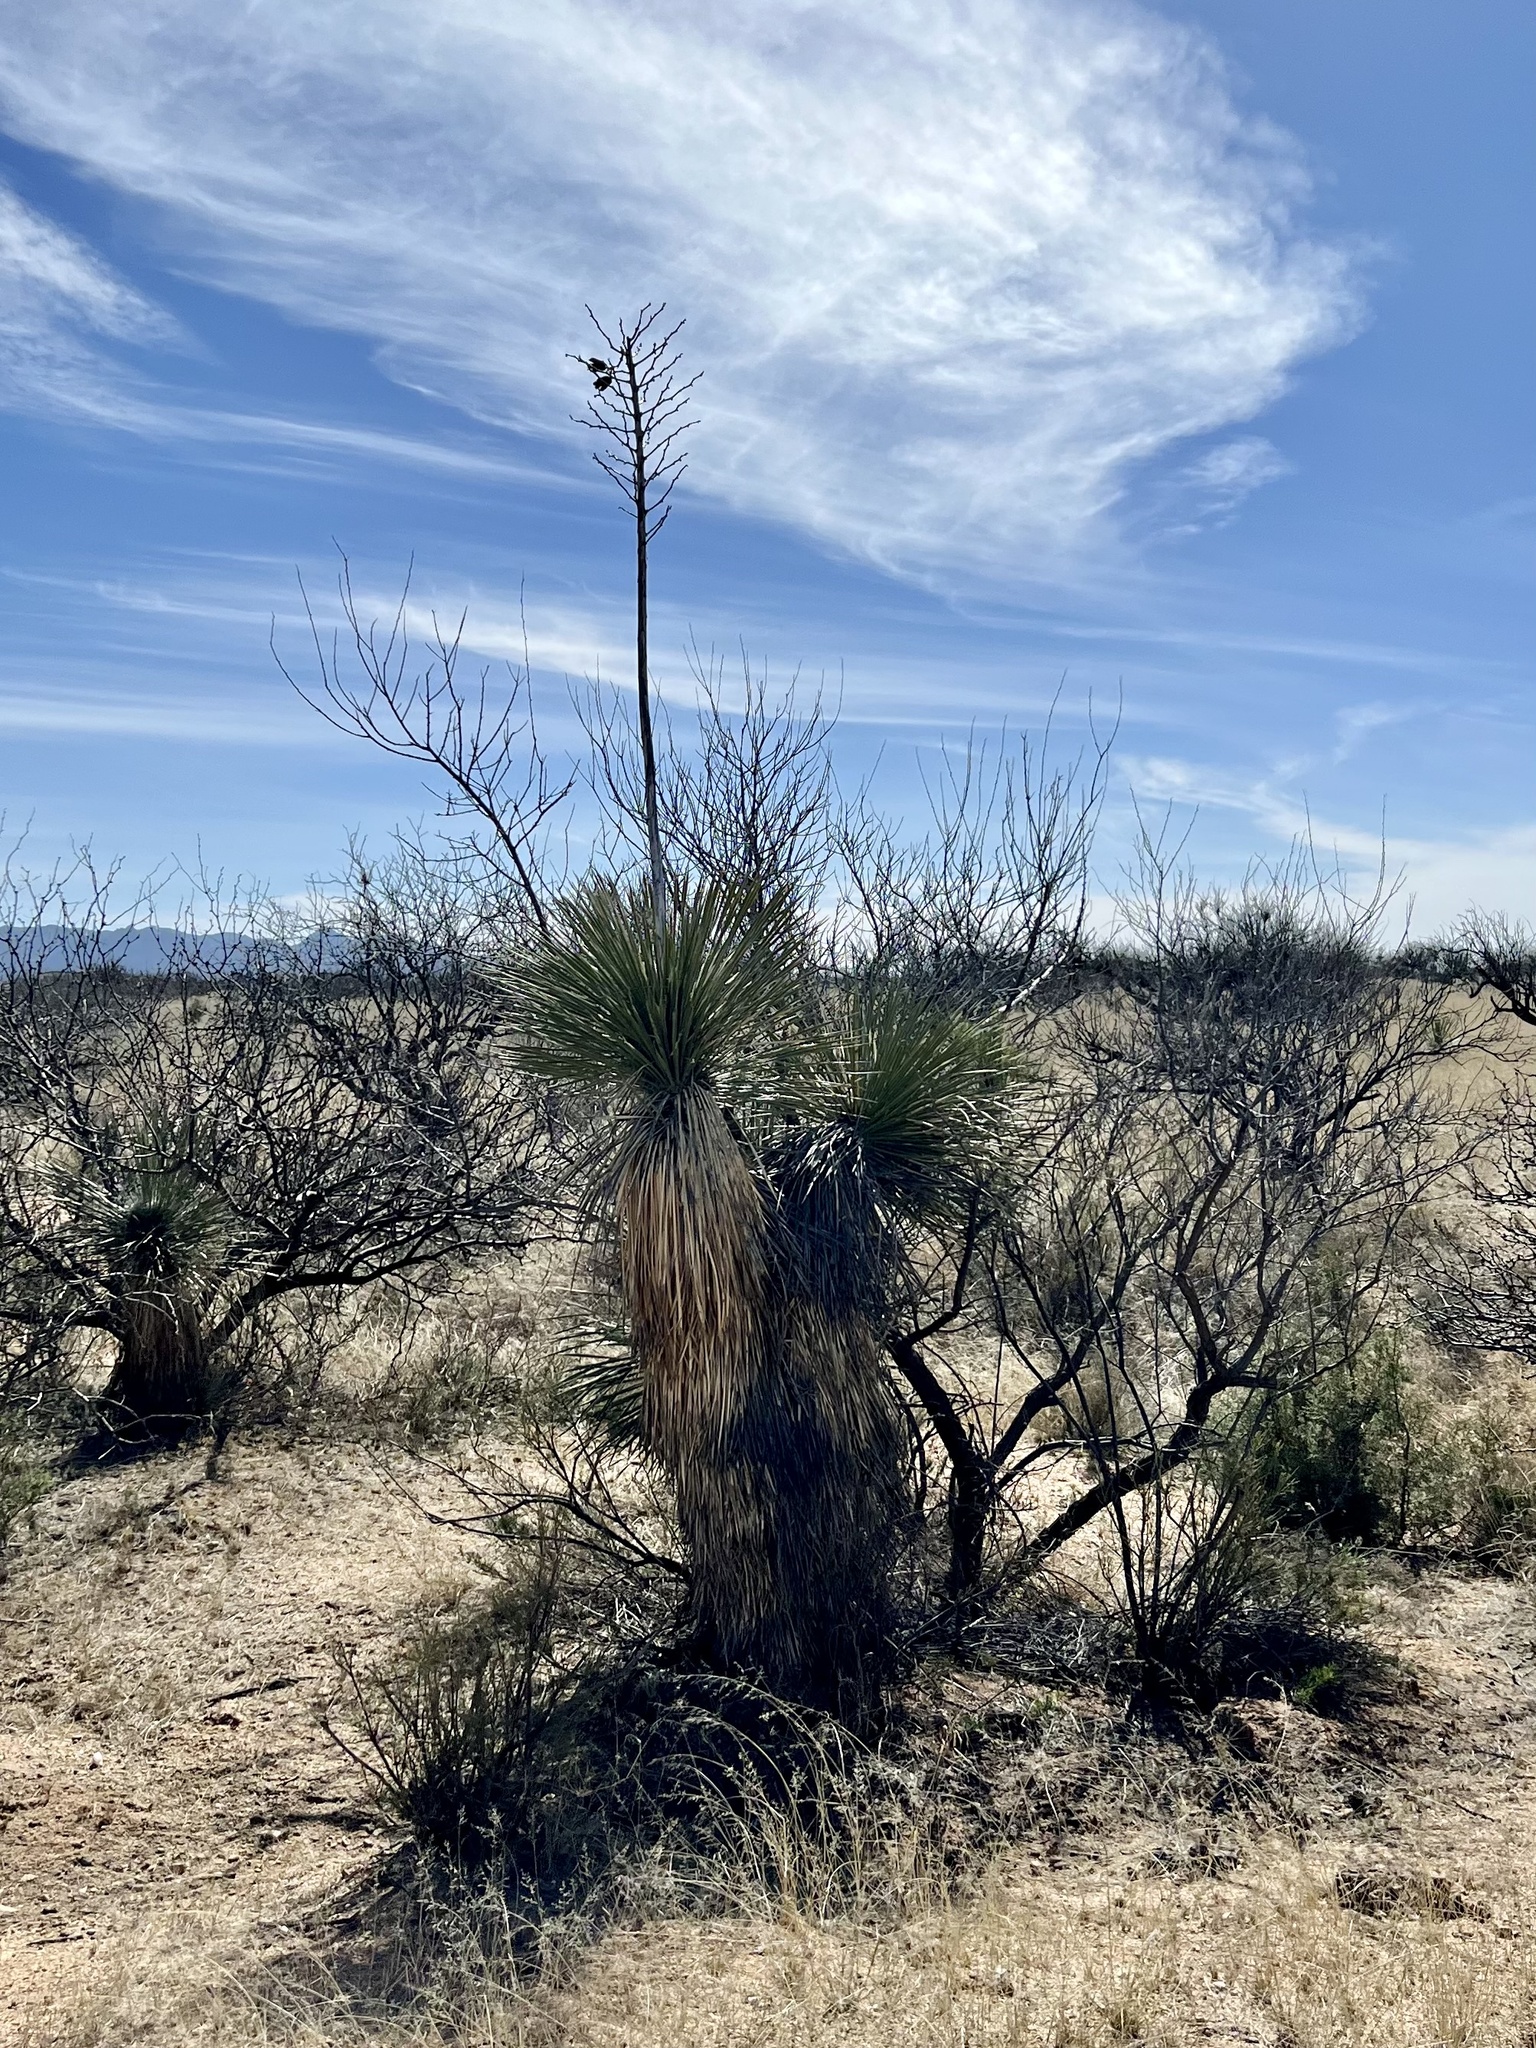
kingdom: Plantae
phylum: Tracheophyta
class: Liliopsida
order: Asparagales
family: Asparagaceae
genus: Yucca
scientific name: Yucca elata
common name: Palmella
